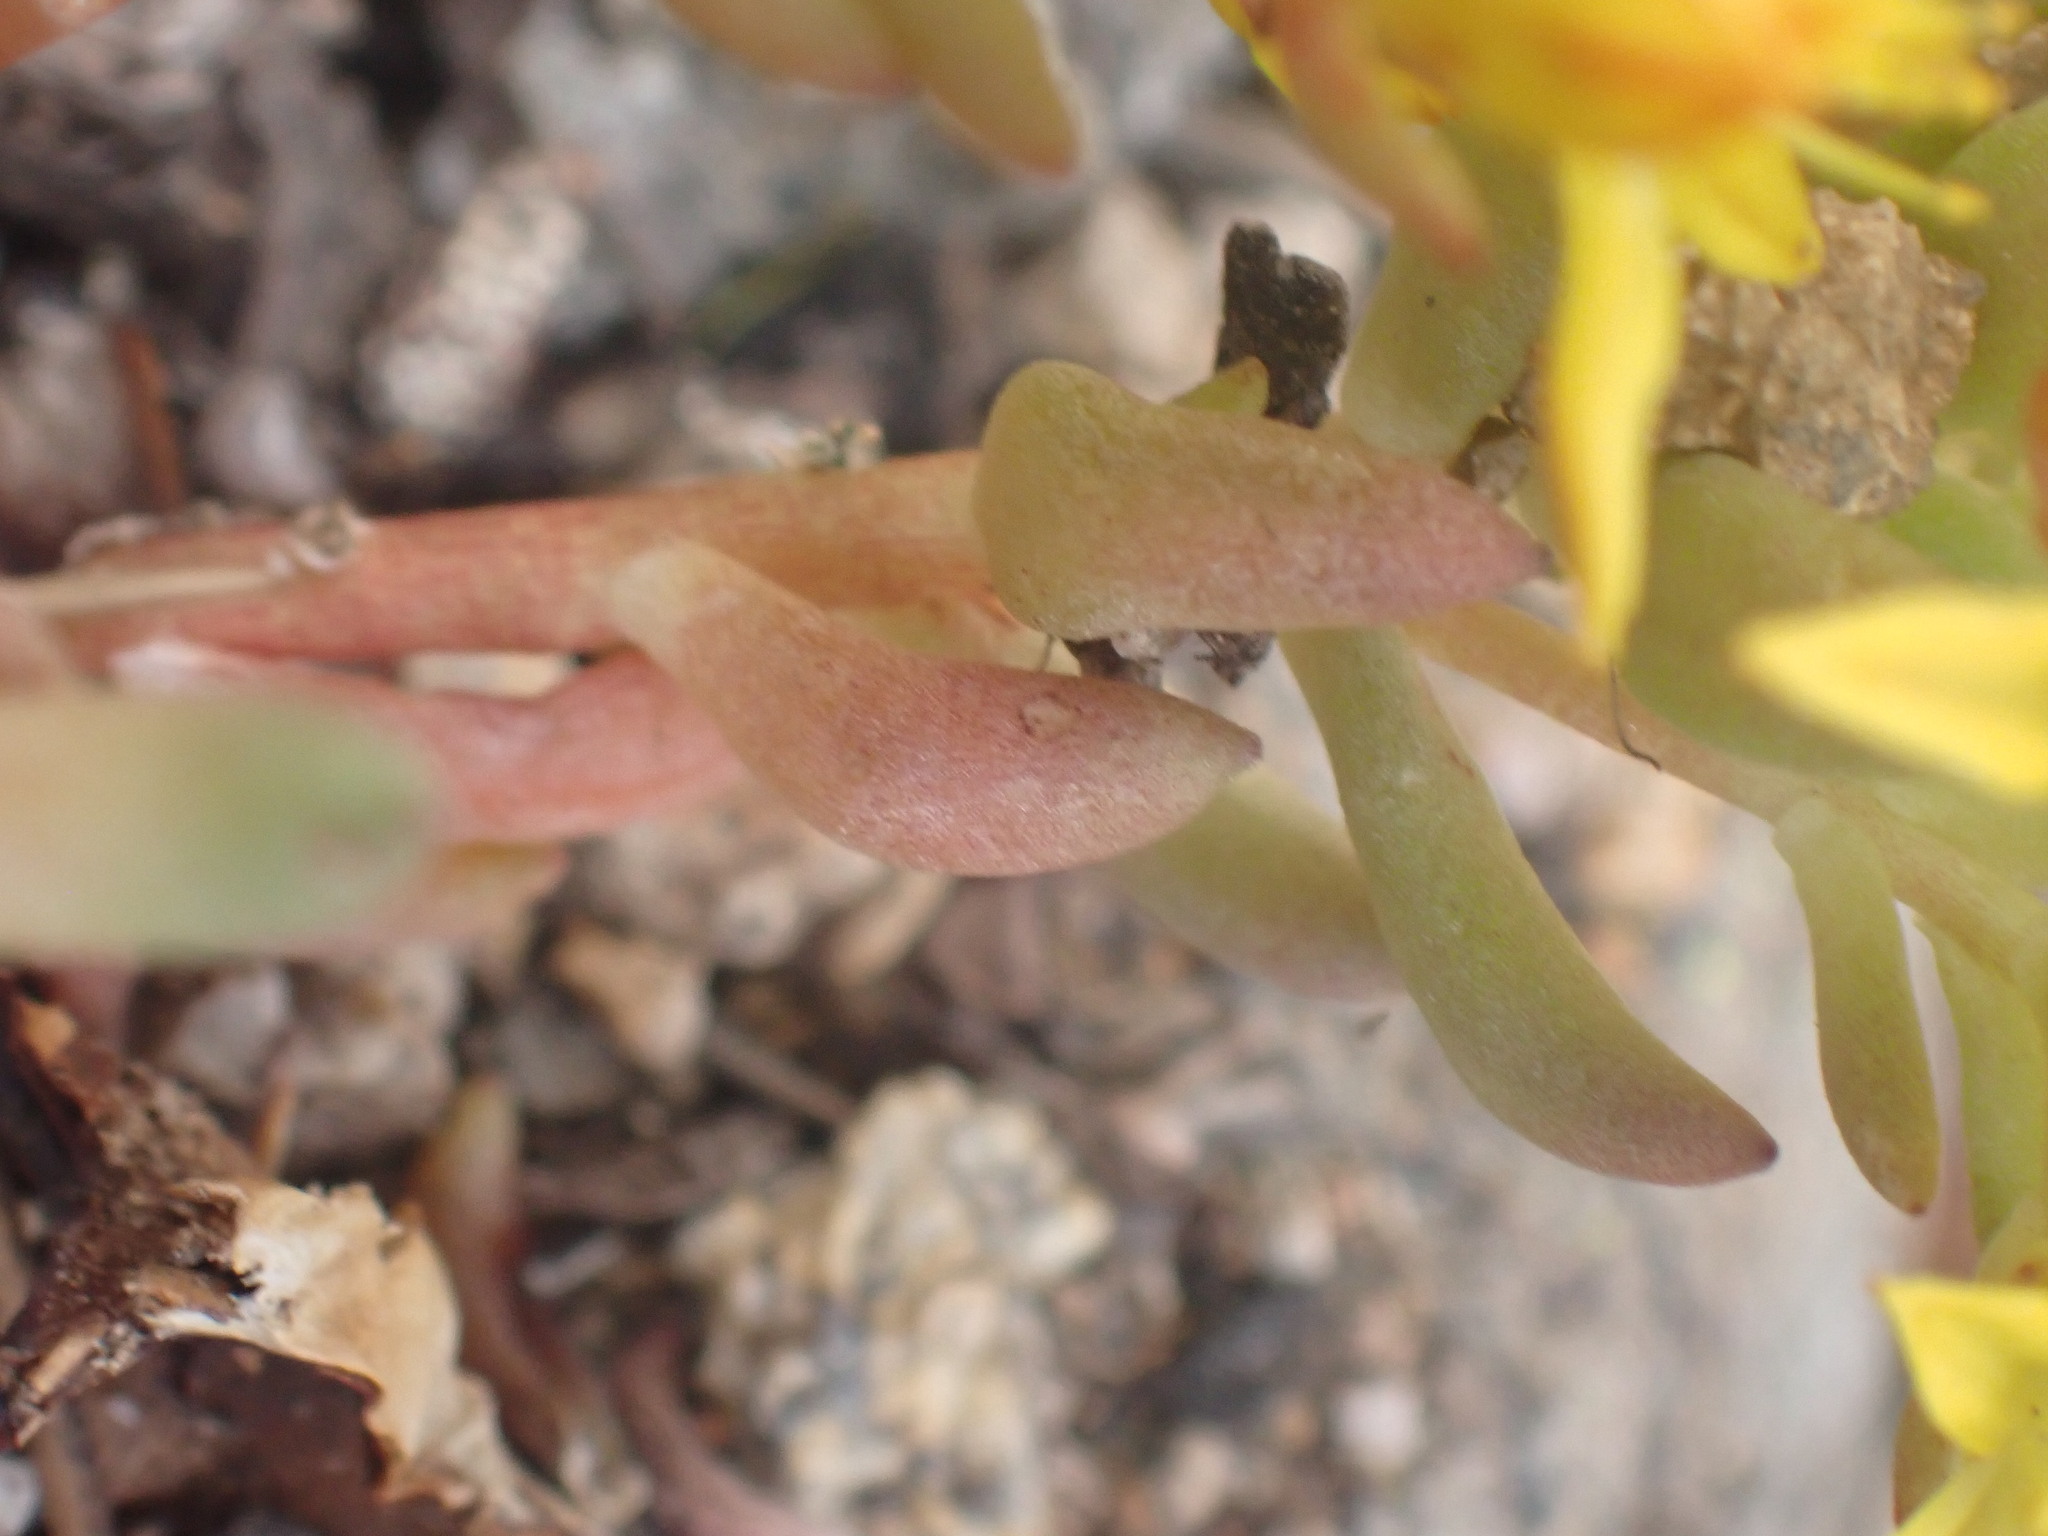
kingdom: Plantae
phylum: Tracheophyta
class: Magnoliopsida
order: Saxifragales
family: Crassulaceae
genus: Sedum
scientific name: Sedum lanceolatum
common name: Common stonecrop
